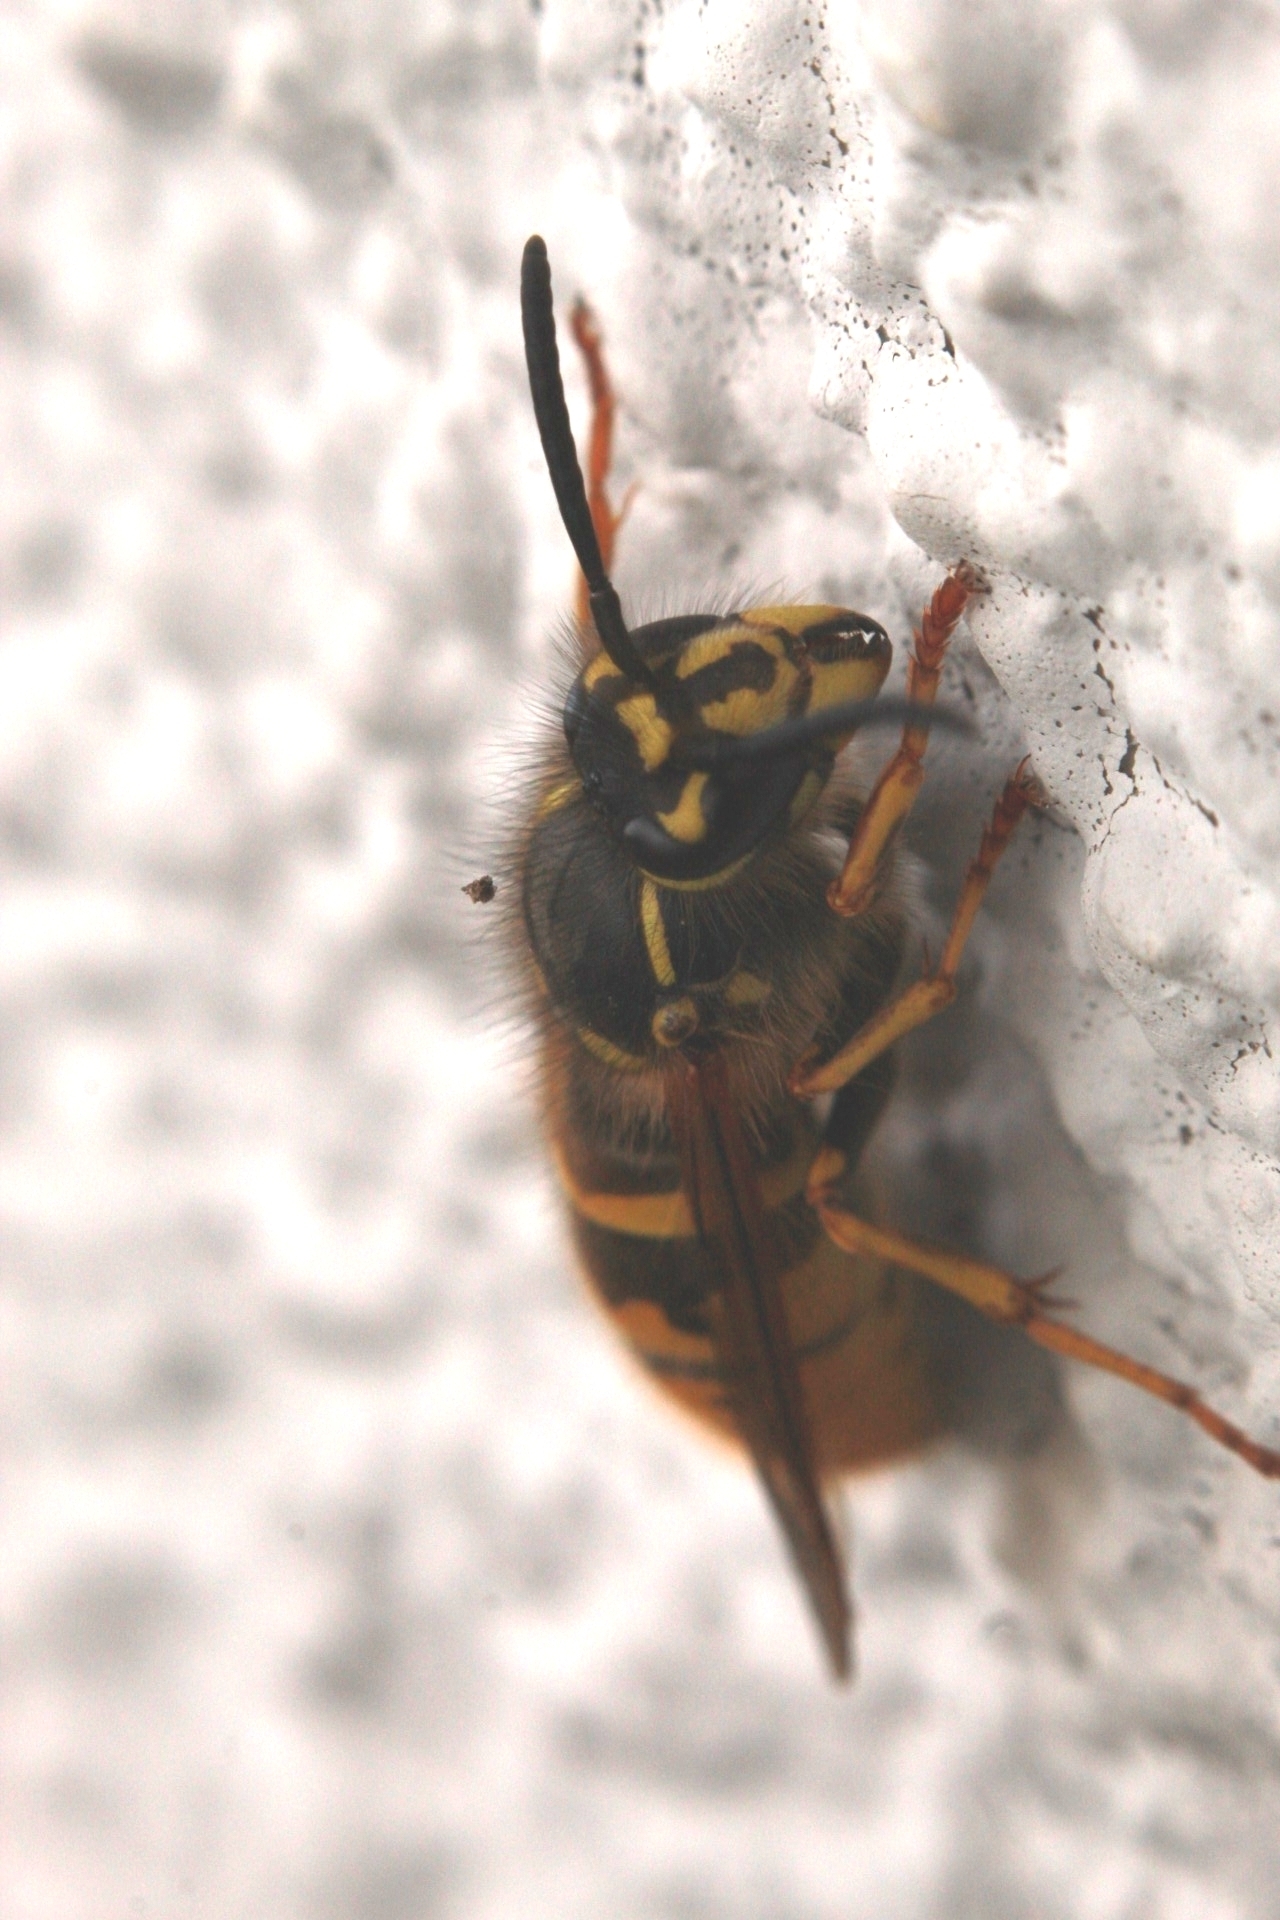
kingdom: Animalia
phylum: Arthropoda
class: Insecta
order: Hymenoptera
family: Vespidae
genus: Vespula
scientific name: Vespula vulgaris
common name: Common wasp
